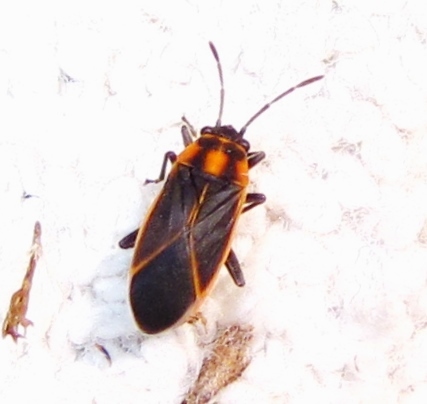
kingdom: Animalia
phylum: Arthropoda
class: Insecta
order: Hemiptera
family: Lygaeidae
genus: Ochrimnus
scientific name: Ochrimnus lineoloides
